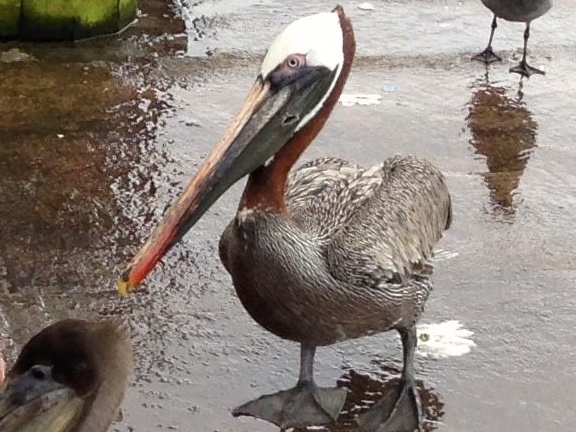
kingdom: Animalia
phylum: Chordata
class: Aves
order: Pelecaniformes
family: Pelecanidae
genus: Pelecanus
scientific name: Pelecanus occidentalis
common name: Brown pelican
